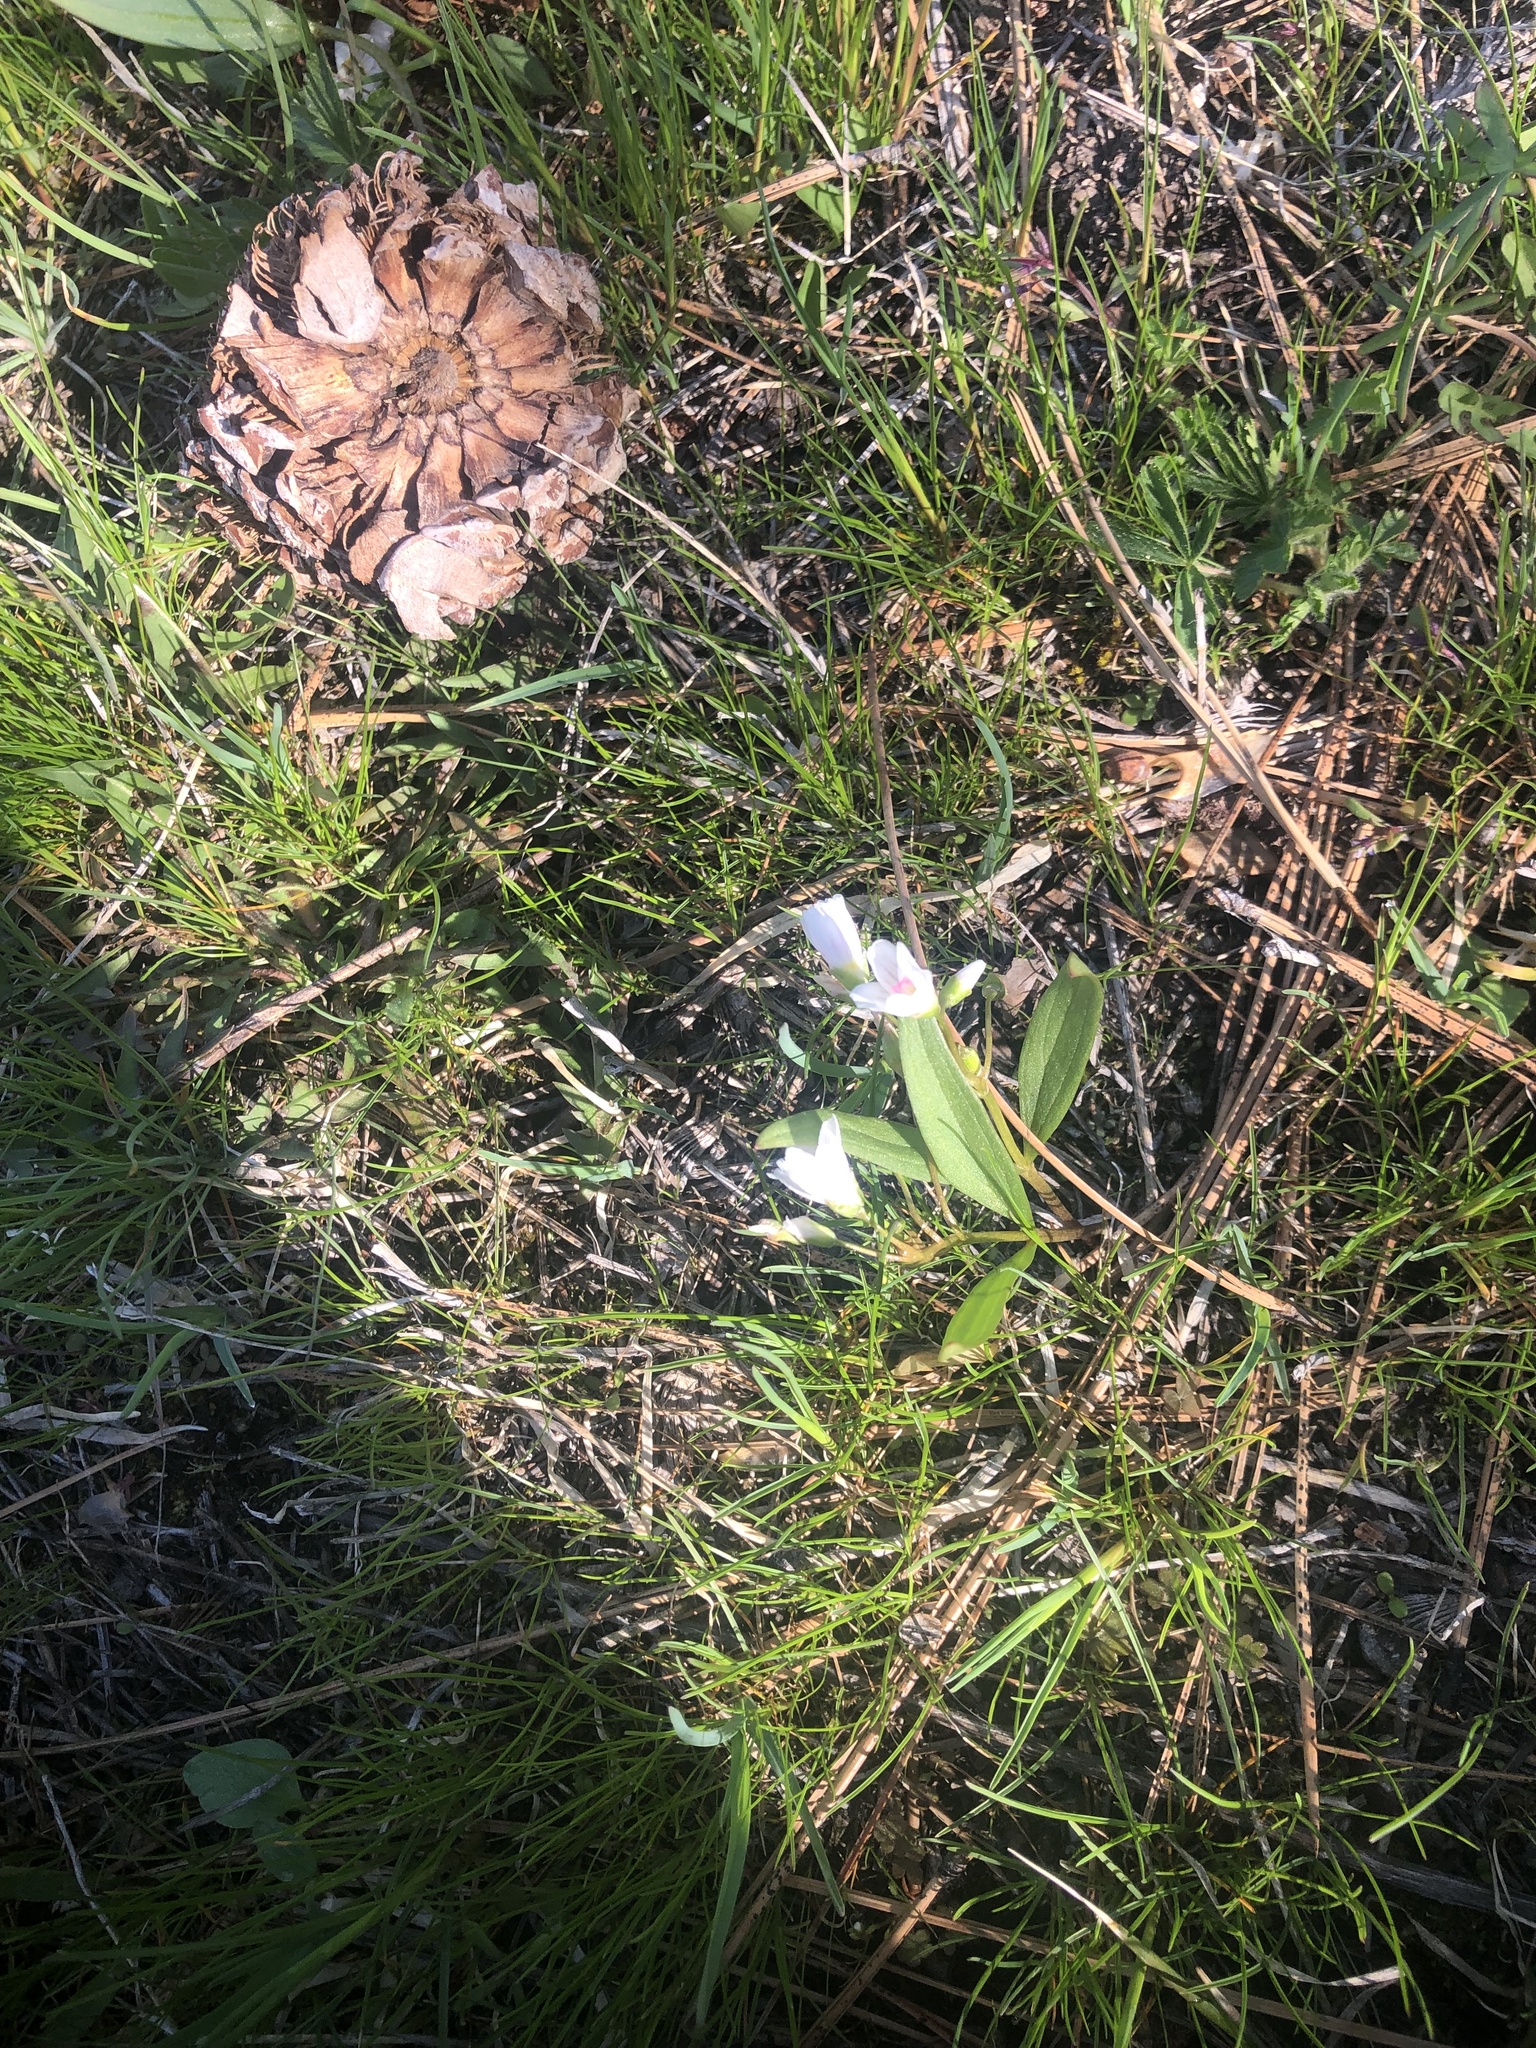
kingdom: Plantae
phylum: Tracheophyta
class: Magnoliopsida
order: Caryophyllales
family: Montiaceae
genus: Claytonia
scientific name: Claytonia lanceolata
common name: Western spring-beauty
